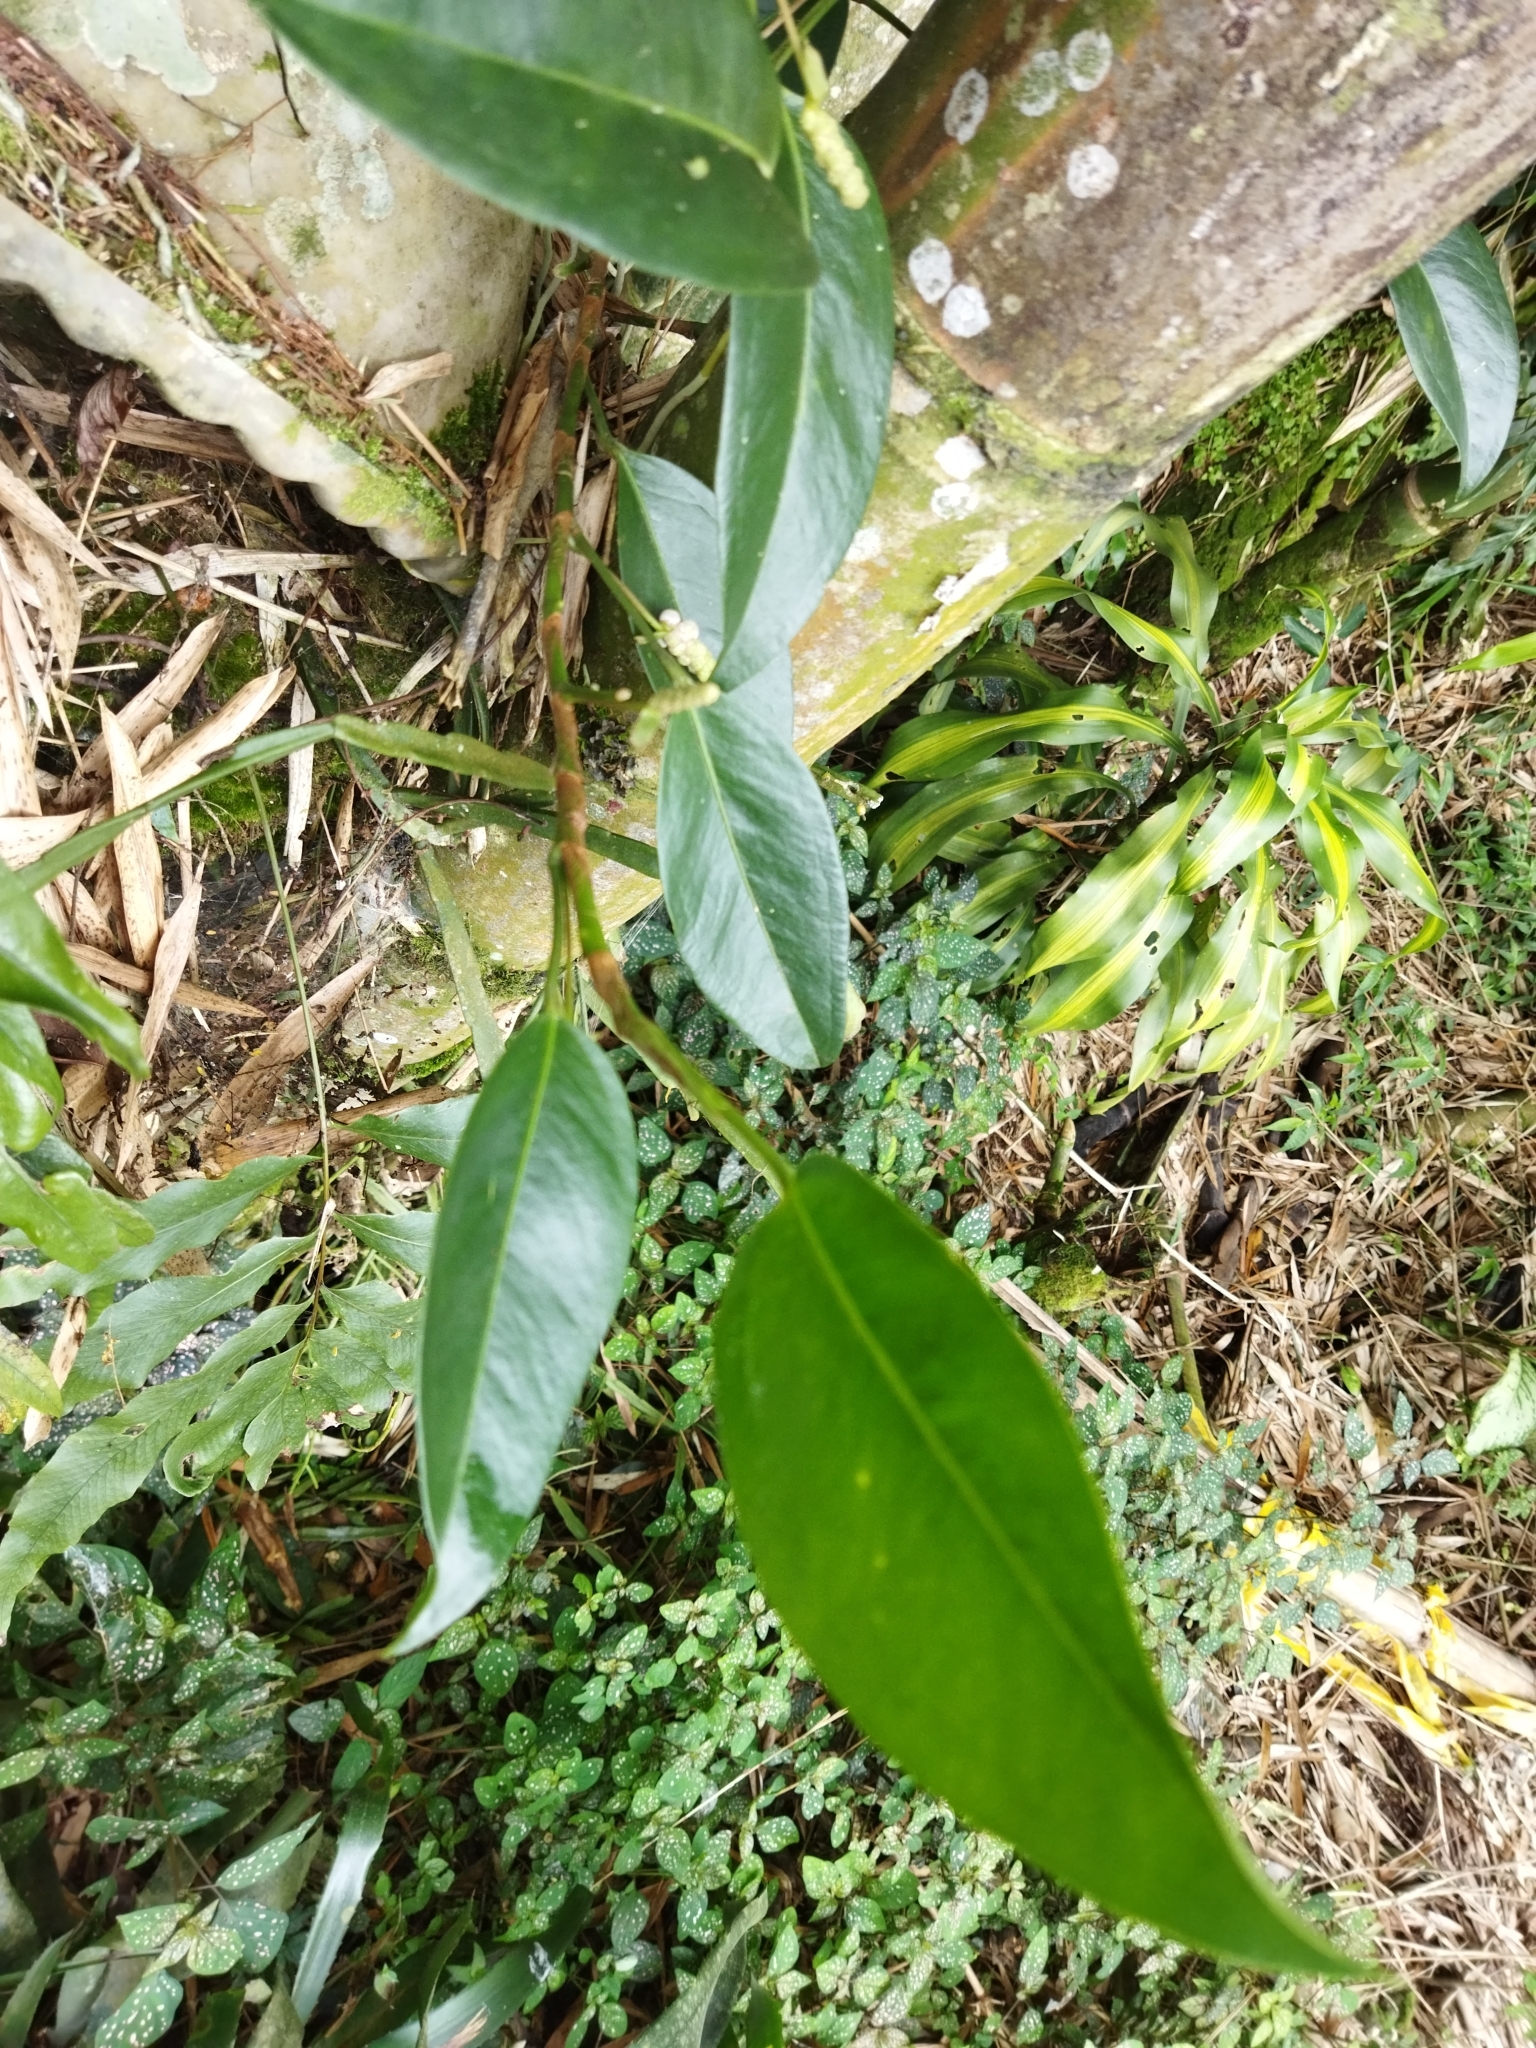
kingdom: Plantae
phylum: Tracheophyta
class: Liliopsida
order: Alismatales
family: Araceae
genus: Anthurium
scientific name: Anthurium scandens
